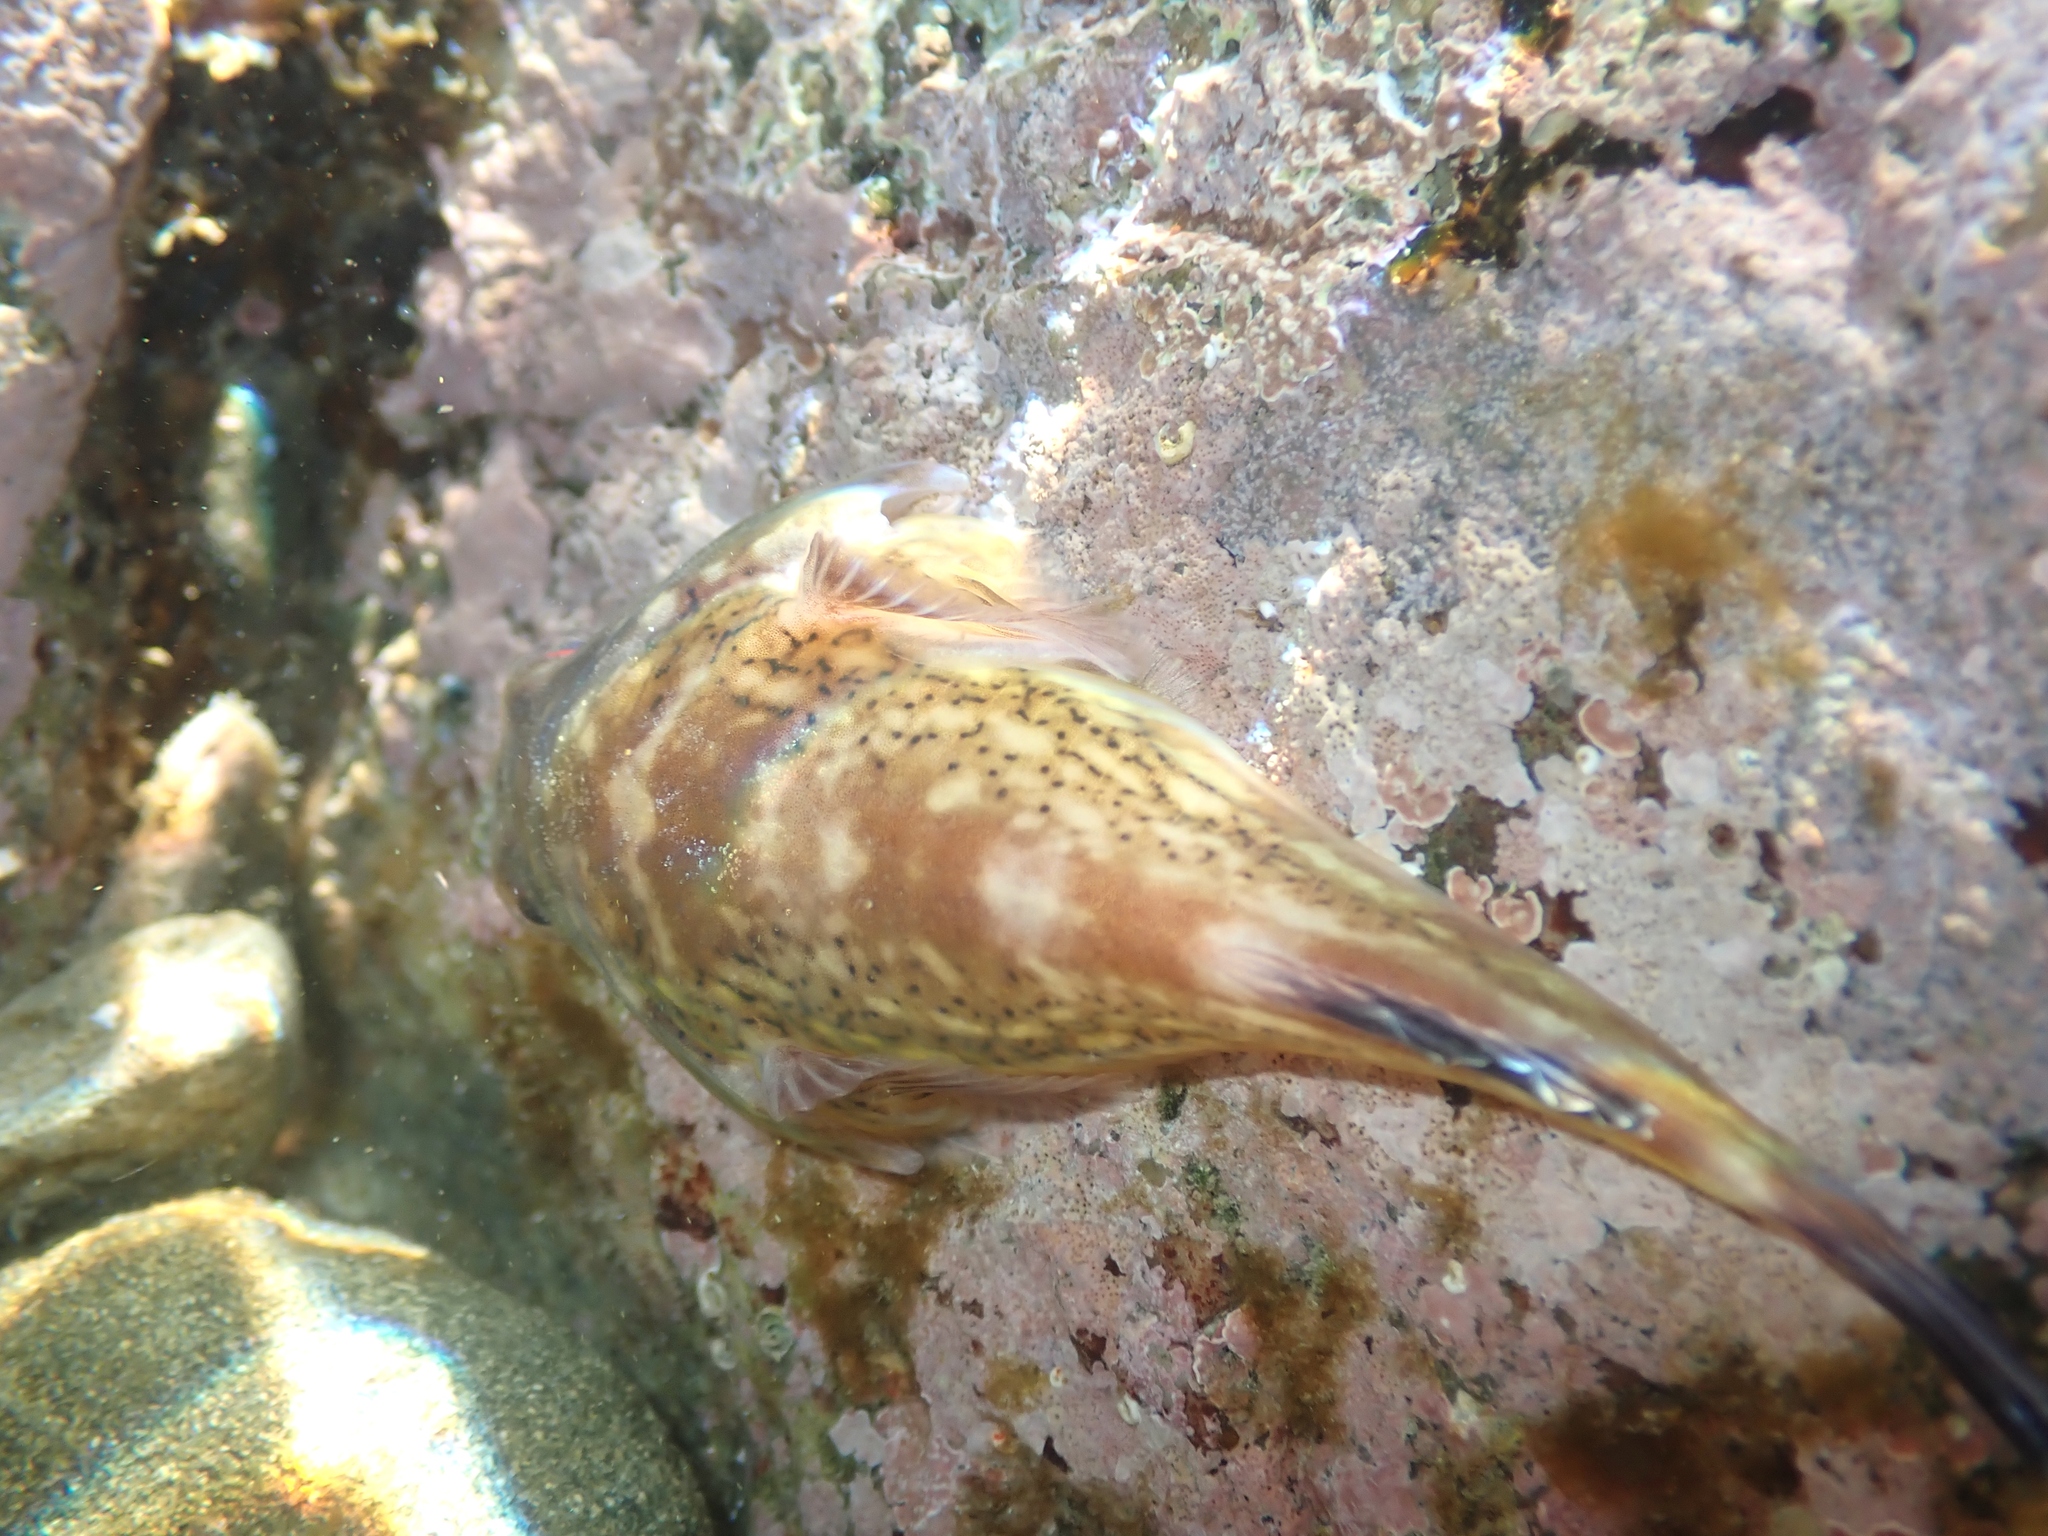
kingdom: Animalia
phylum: Chordata
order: Gobiesociformes
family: Gobiesocidae
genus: Diplocrepis
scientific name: Diplocrepis puniceus
